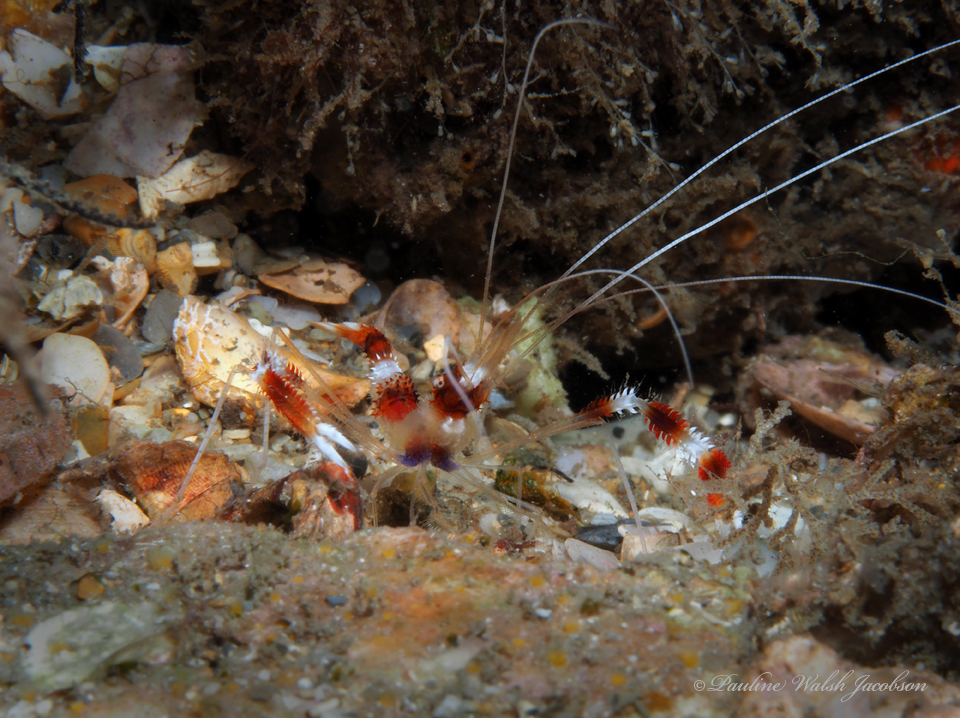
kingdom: Animalia
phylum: Arthropoda
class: Malacostraca
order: Decapoda
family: Stenopodidae
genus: Stenopus
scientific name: Stenopus hispidus
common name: Banded coral shrimp
